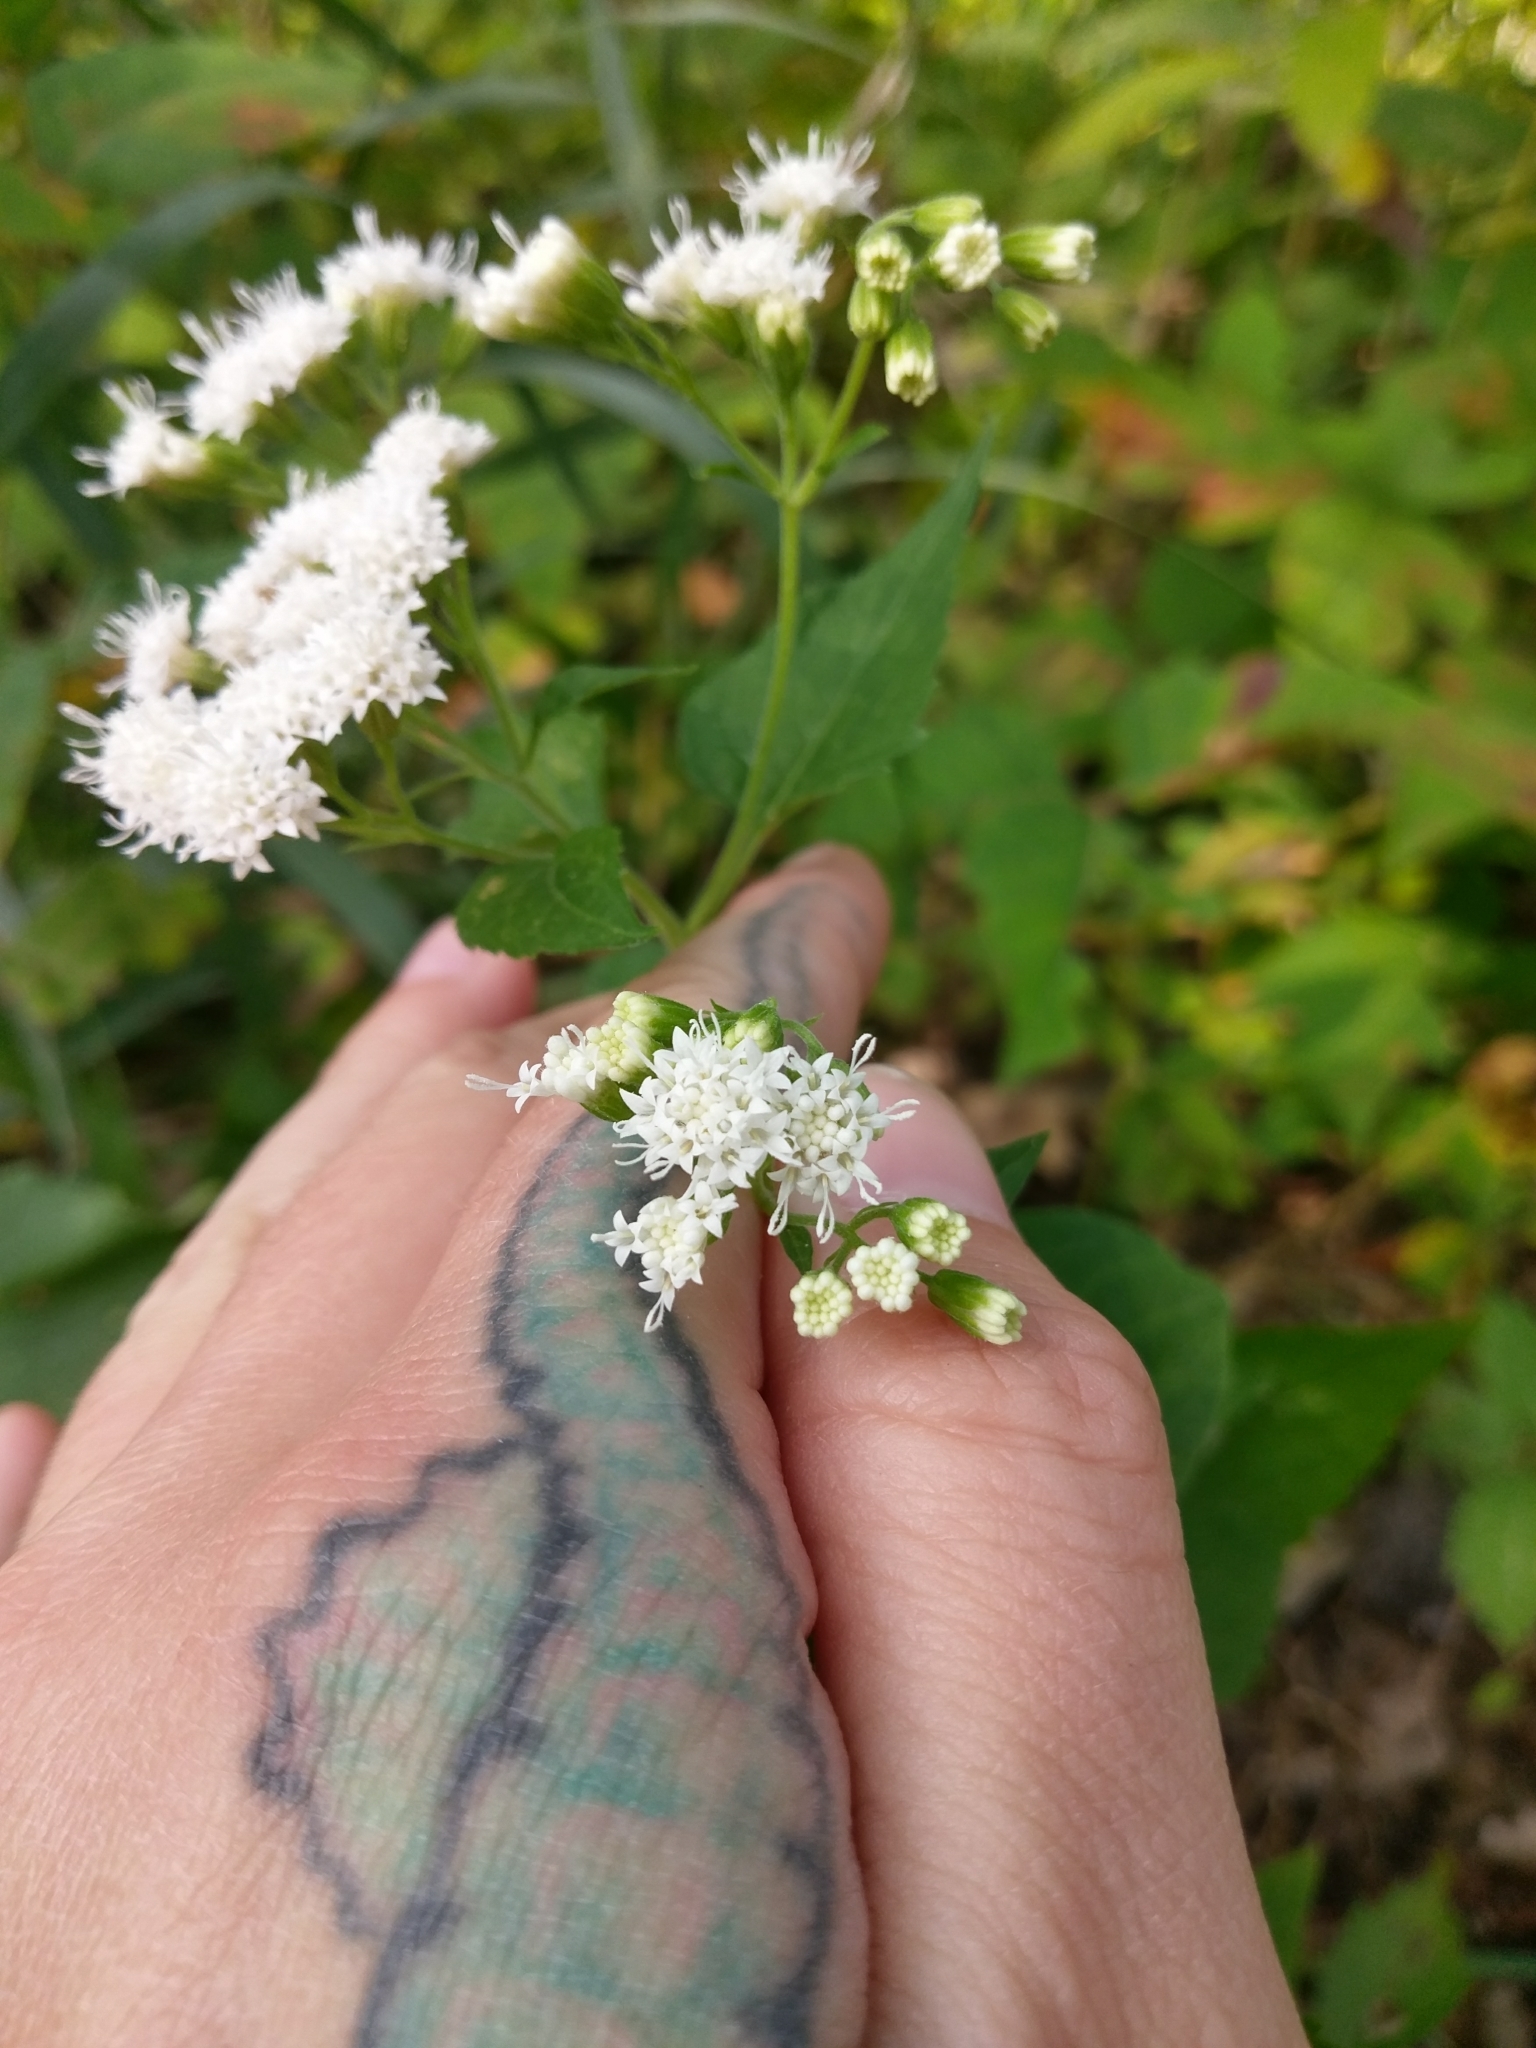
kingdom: Plantae
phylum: Tracheophyta
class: Magnoliopsida
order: Asterales
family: Asteraceae
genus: Ageratina
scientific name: Ageratina altissima
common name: White snakeroot
